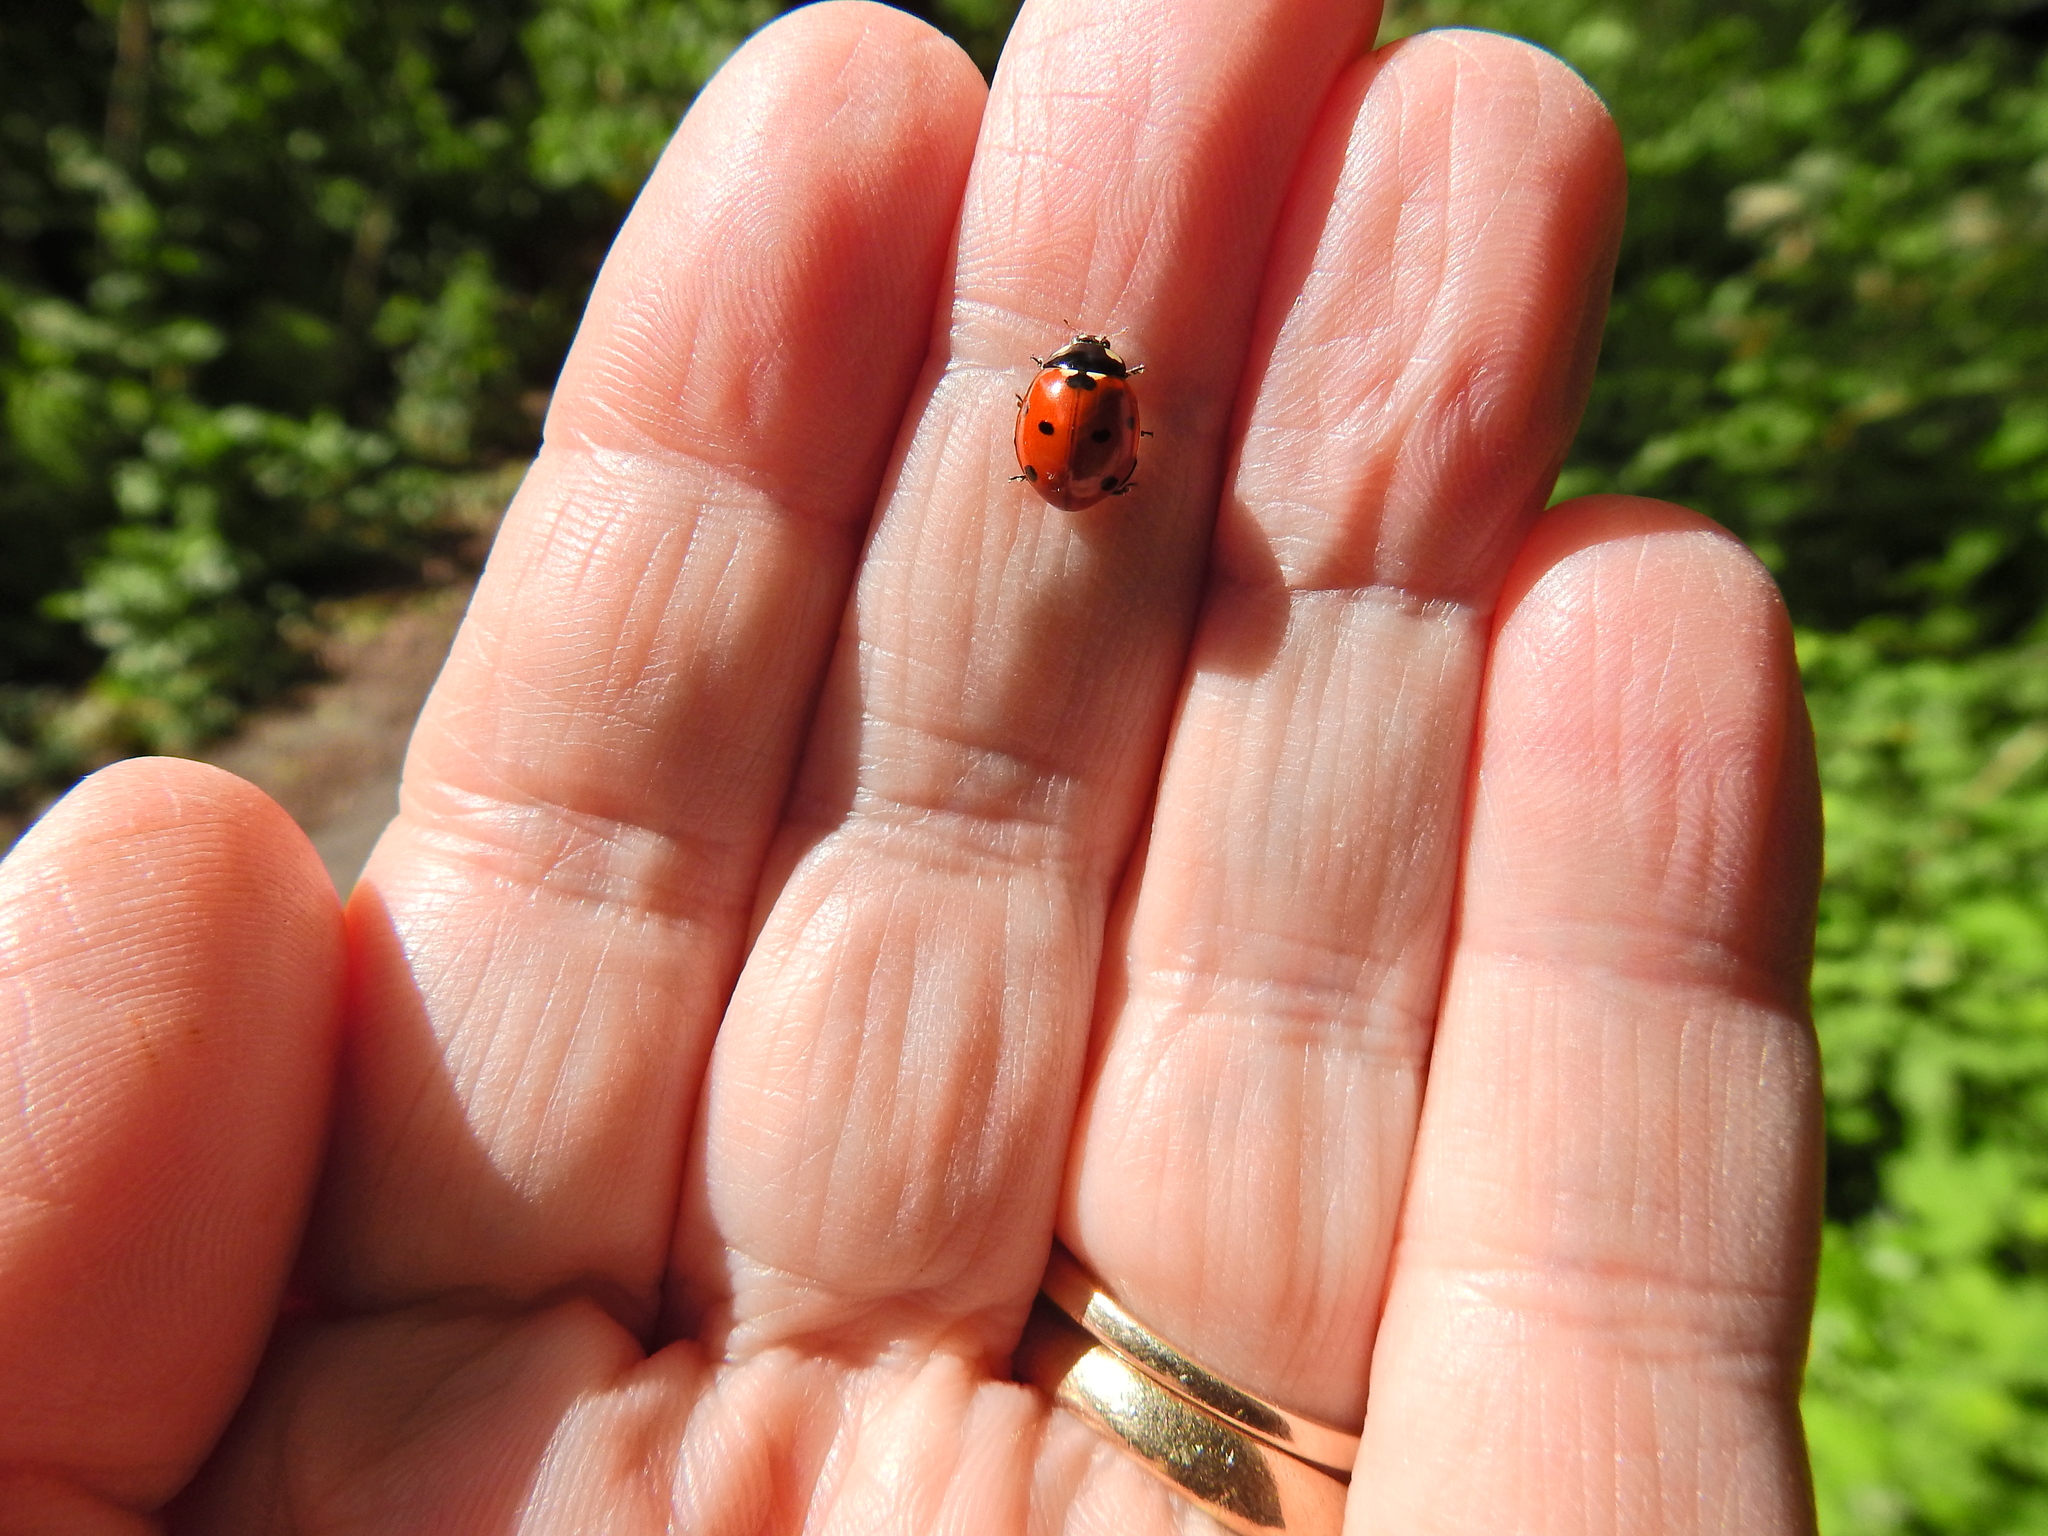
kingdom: Animalia
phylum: Arthropoda
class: Insecta
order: Coleoptera
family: Coccinellidae
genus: Coccinella
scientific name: Coccinella septempunctata
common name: Sevenspotted lady beetle
